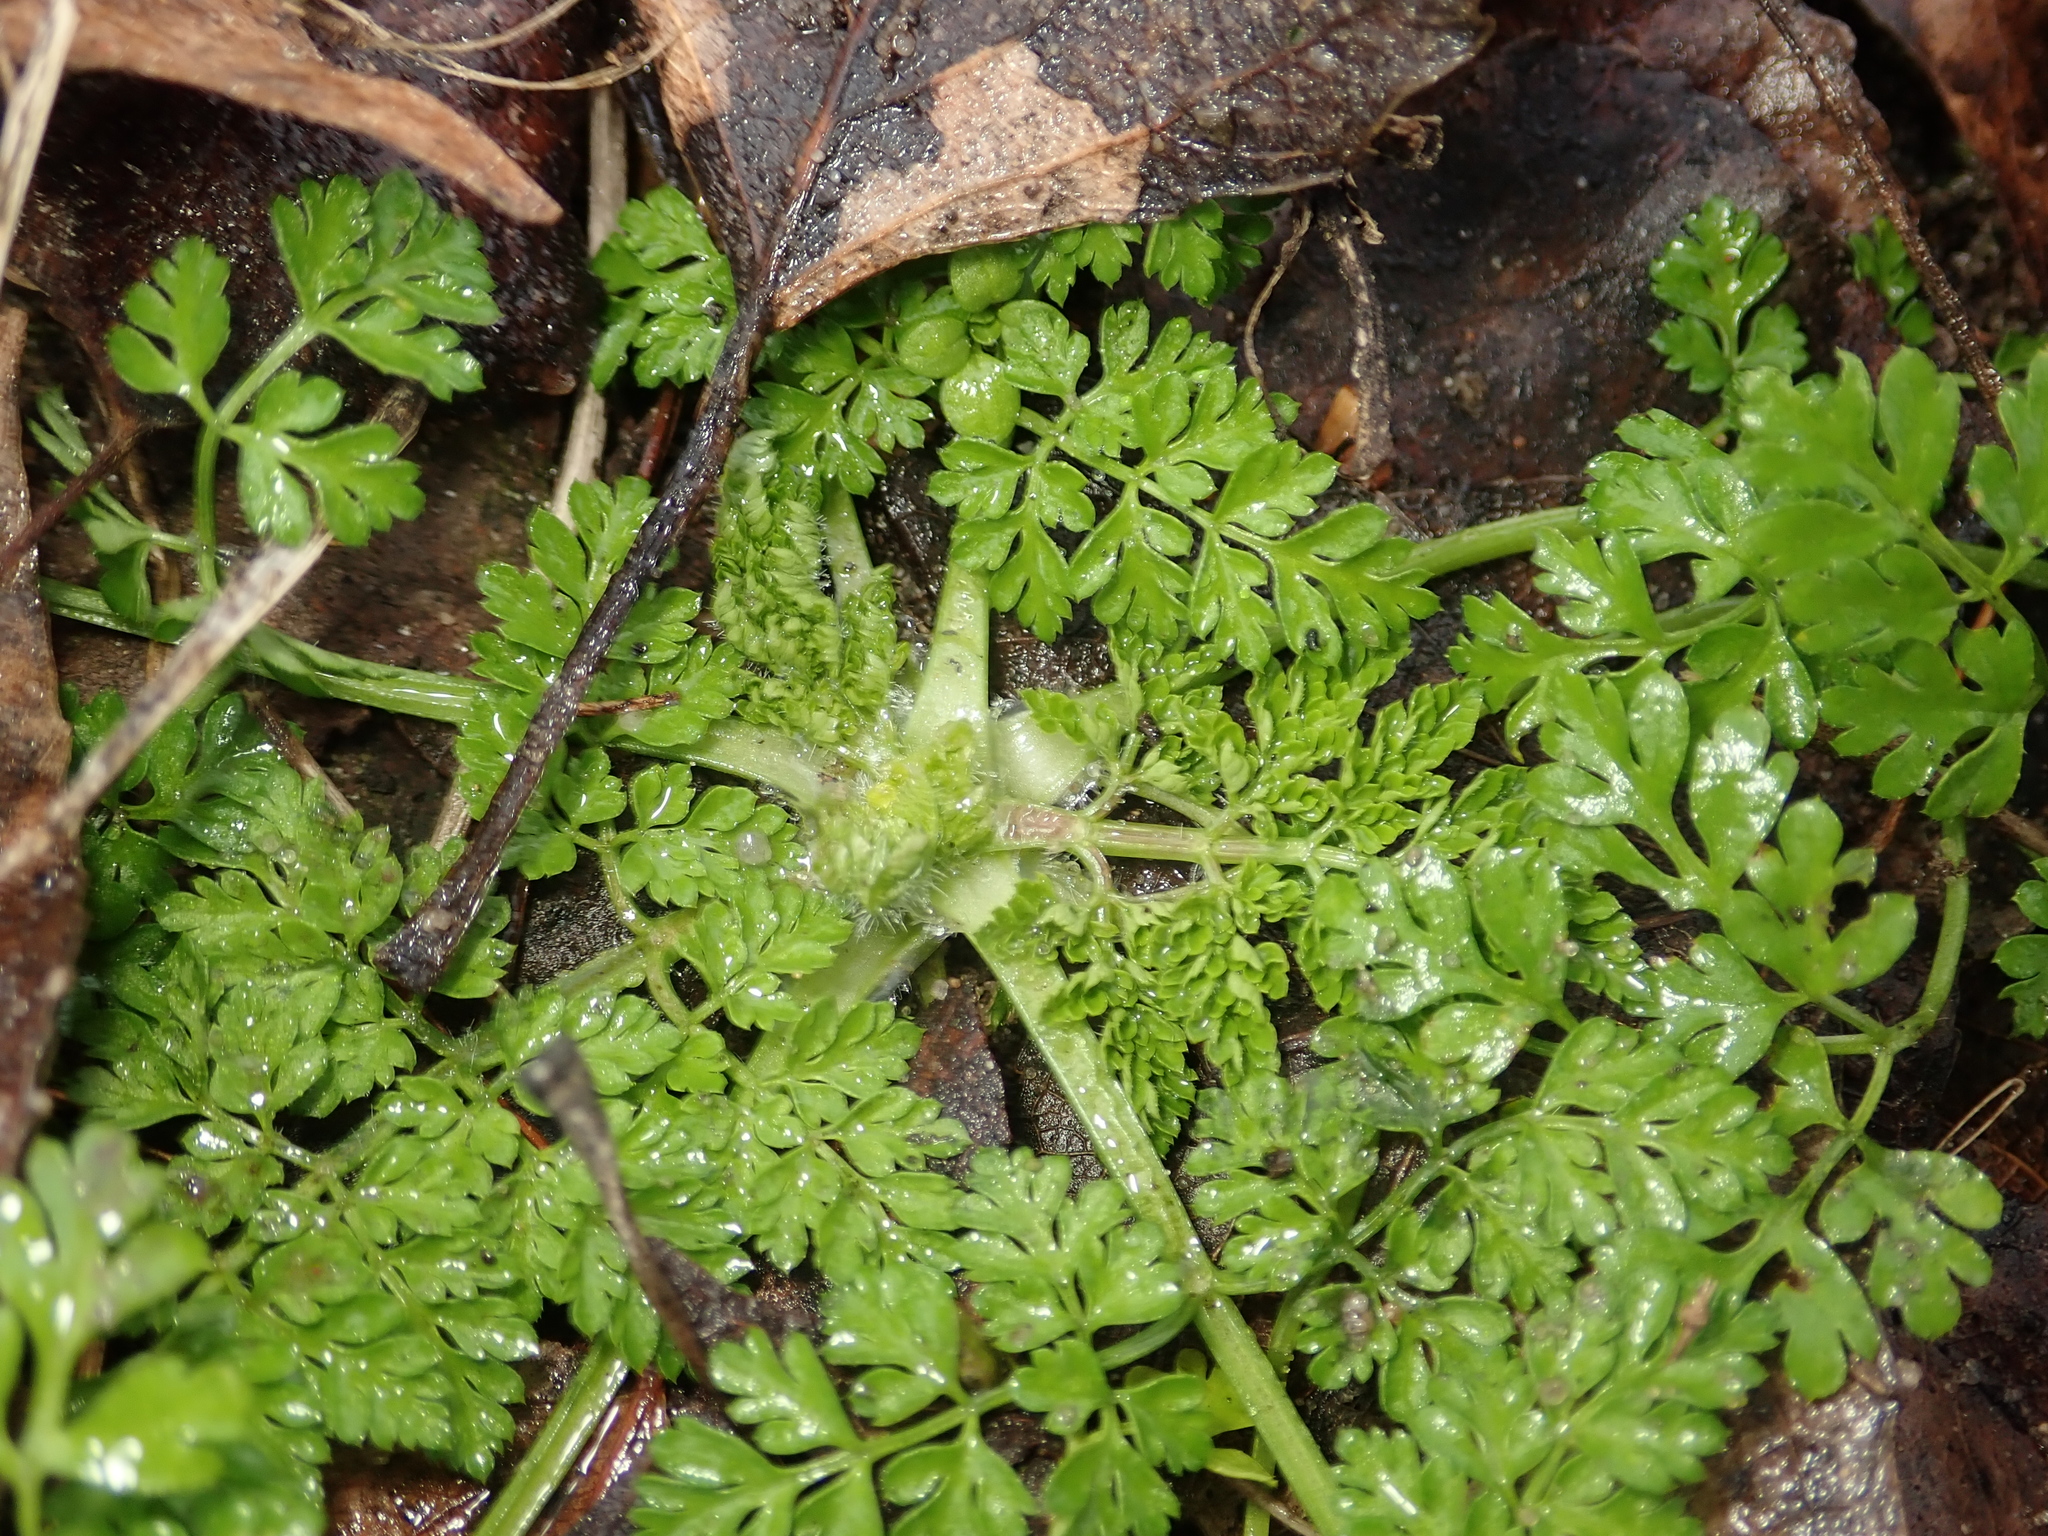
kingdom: Plantae
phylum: Tracheophyta
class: Magnoliopsida
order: Apiales
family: Apiaceae
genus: Anthriscus
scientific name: Anthriscus caucalis
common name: Bur chervil
